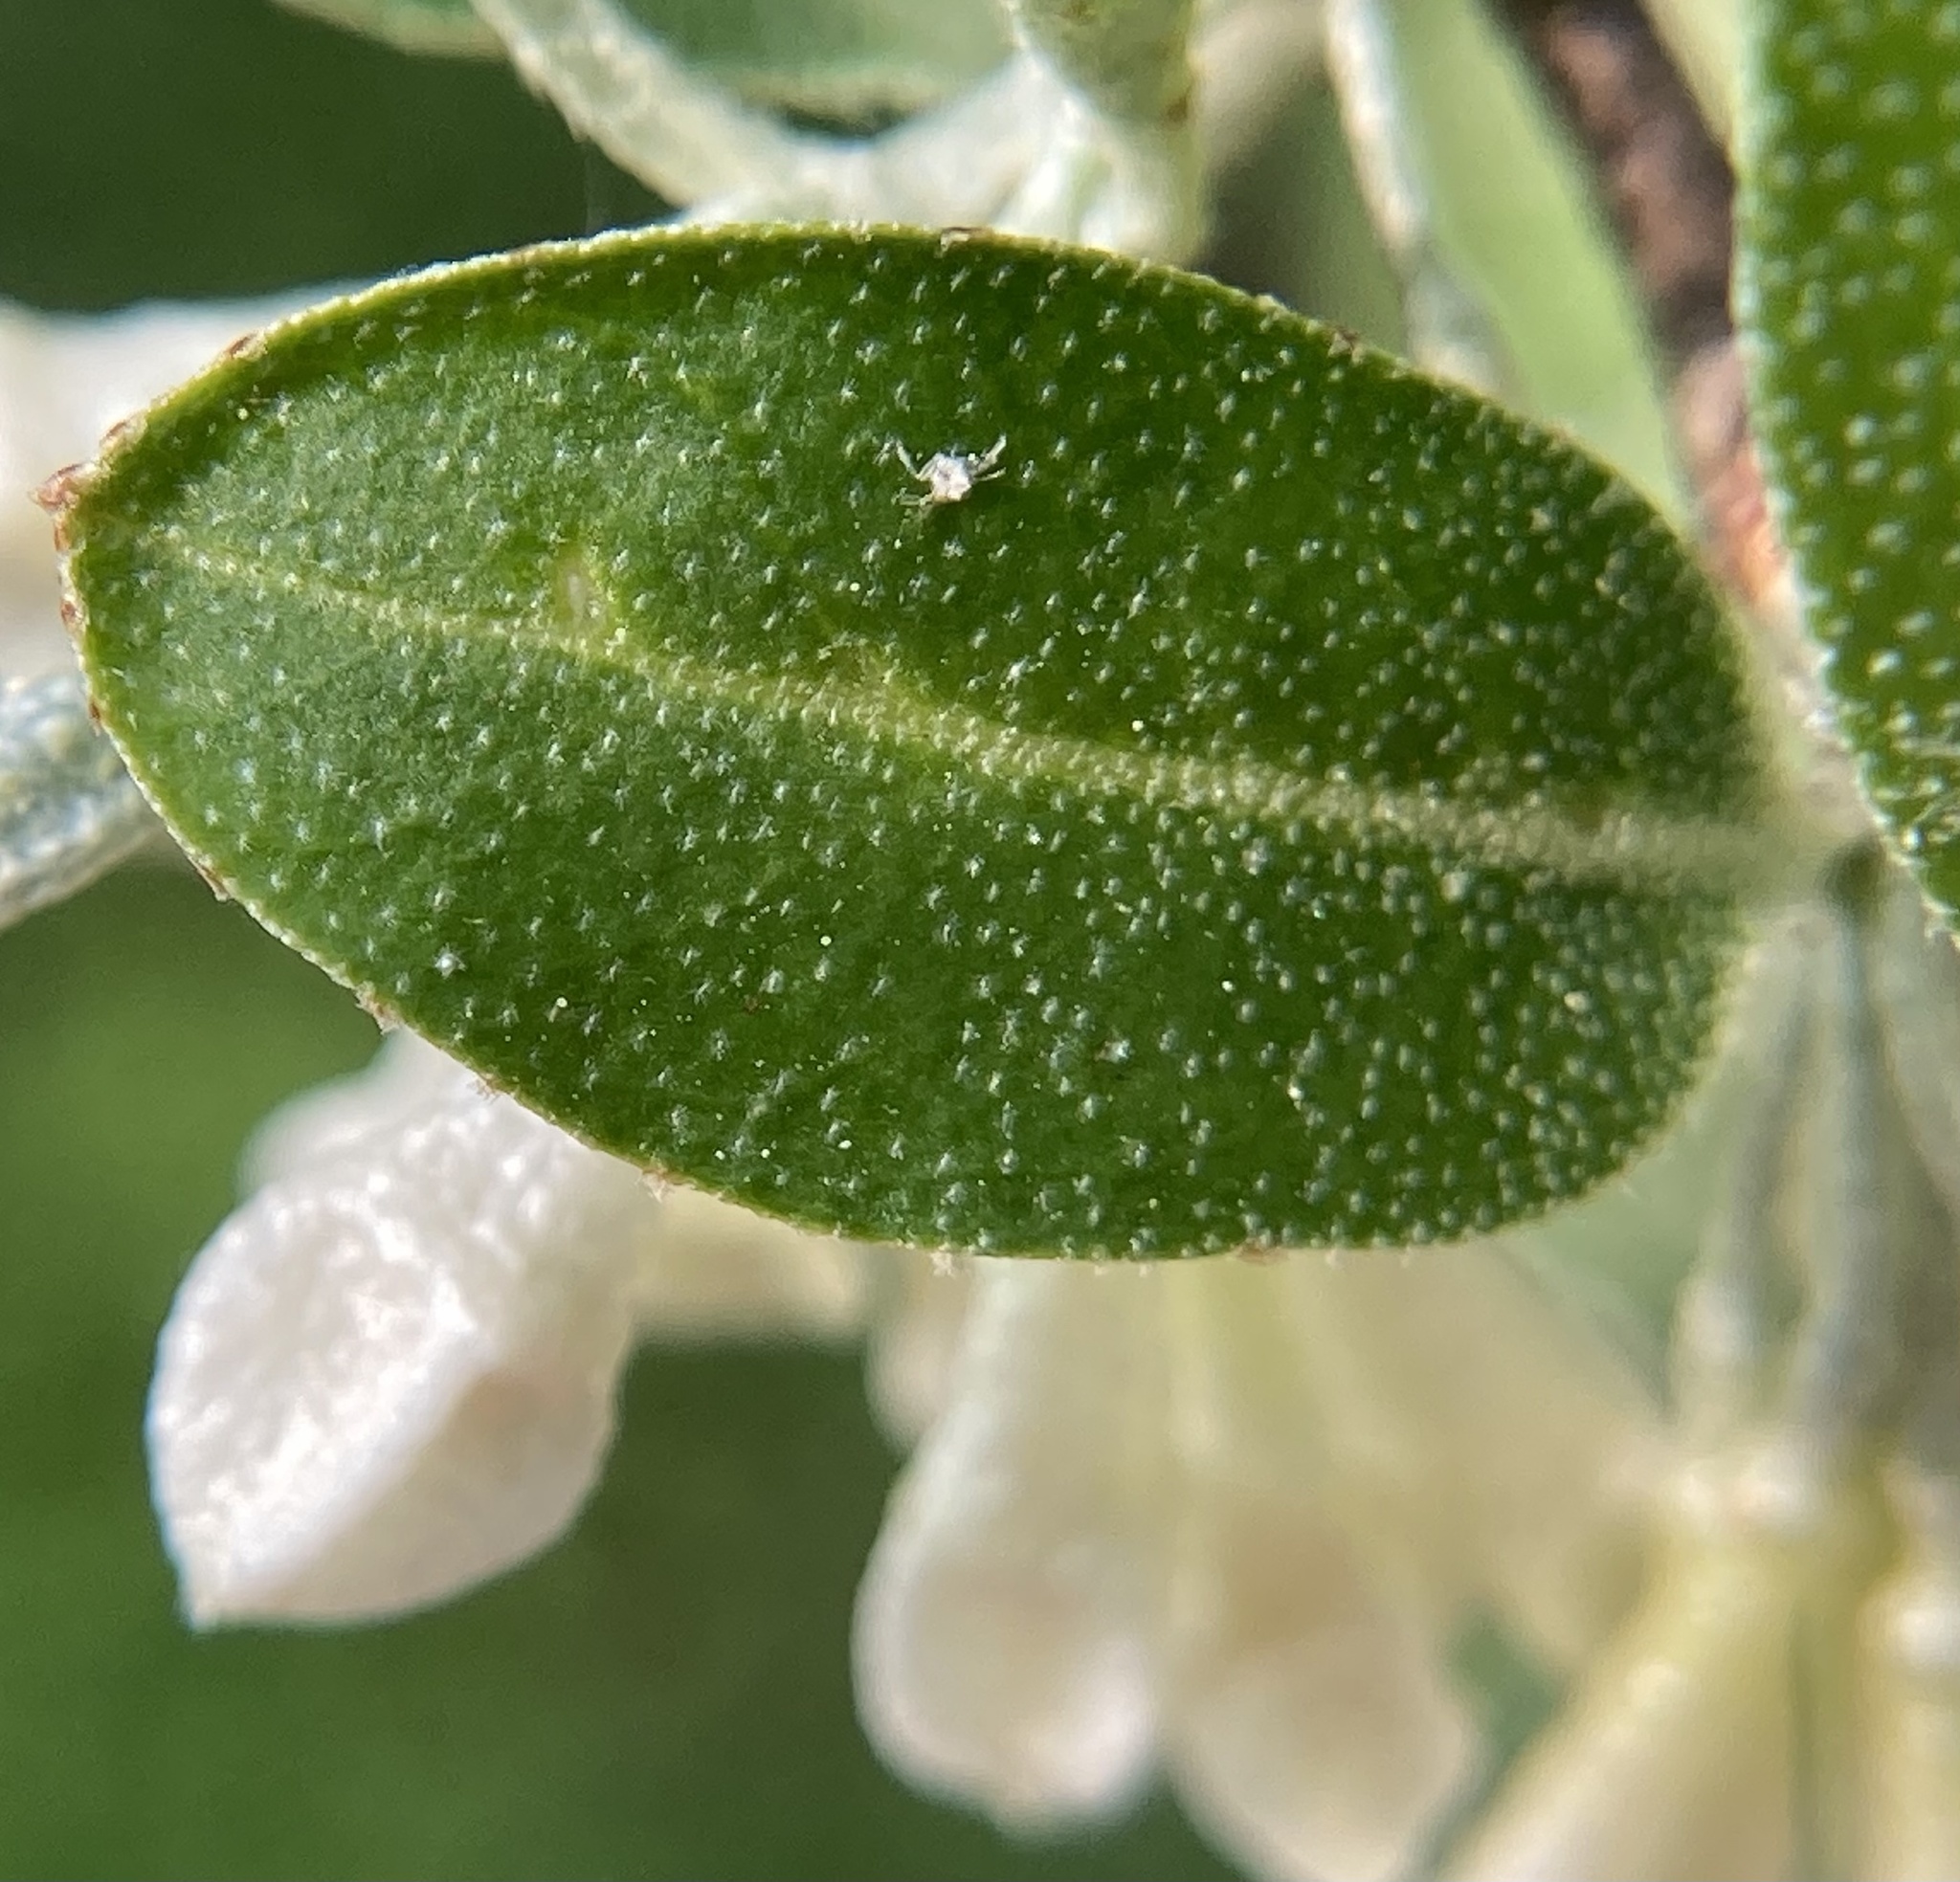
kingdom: Plantae
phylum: Tracheophyta
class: Magnoliopsida
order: Rosales
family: Elaeagnaceae
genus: Elaeagnus
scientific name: Elaeagnus umbellata
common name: Autumn olive
